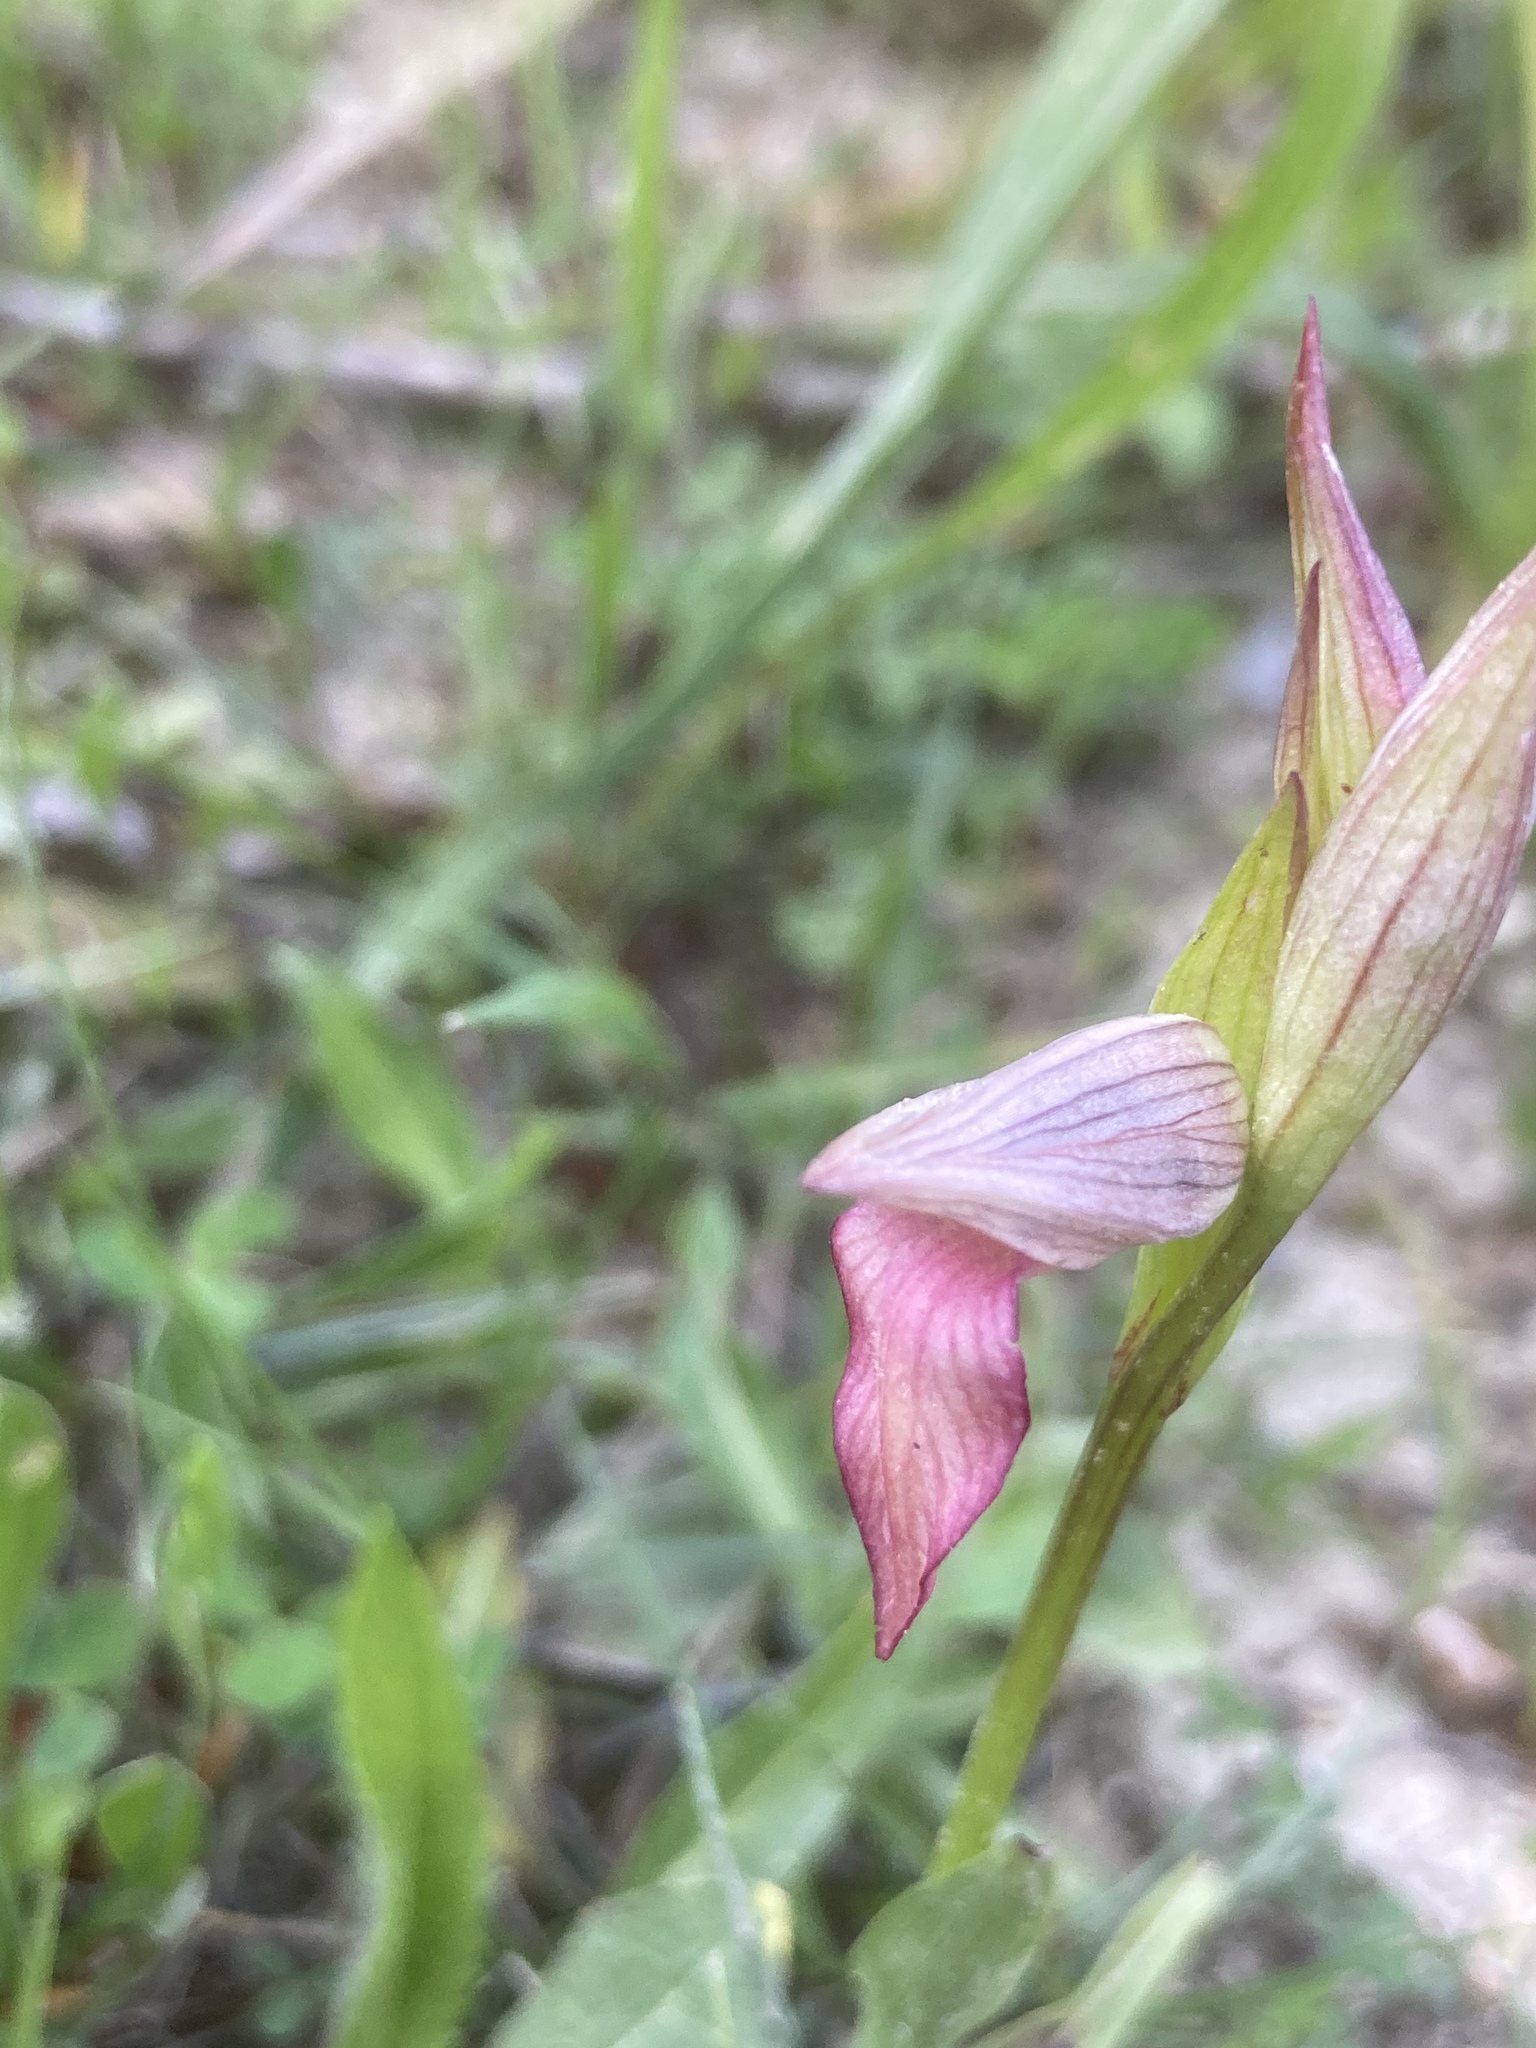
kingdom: Plantae
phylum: Tracheophyta
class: Liliopsida
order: Asparagales
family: Orchidaceae
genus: Serapias
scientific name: Serapias lingua
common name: Tongue-orchid
